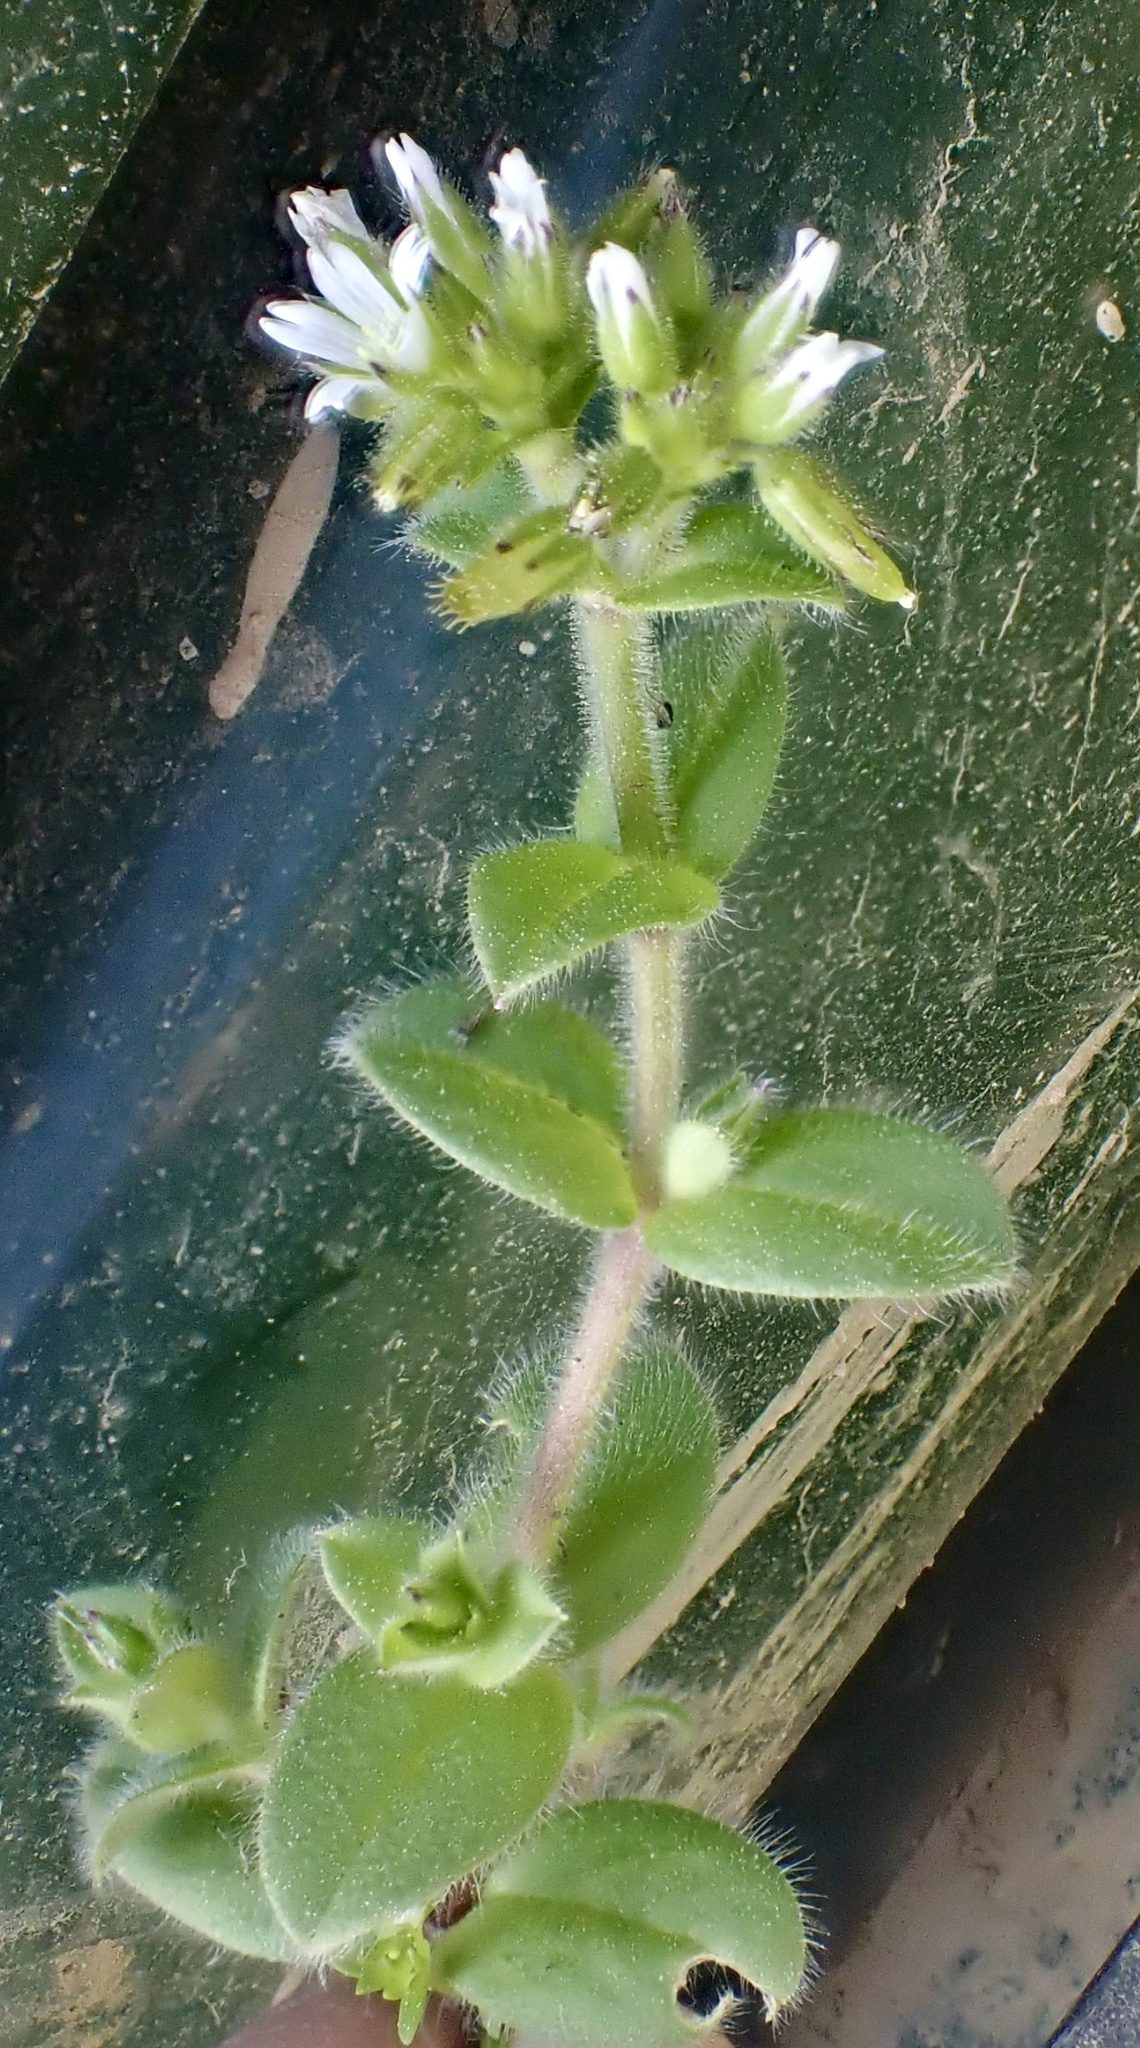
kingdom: Plantae
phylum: Tracheophyta
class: Magnoliopsida
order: Caryophyllales
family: Caryophyllaceae
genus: Cerastium
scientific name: Cerastium glomeratum
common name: Sticky chickweed
